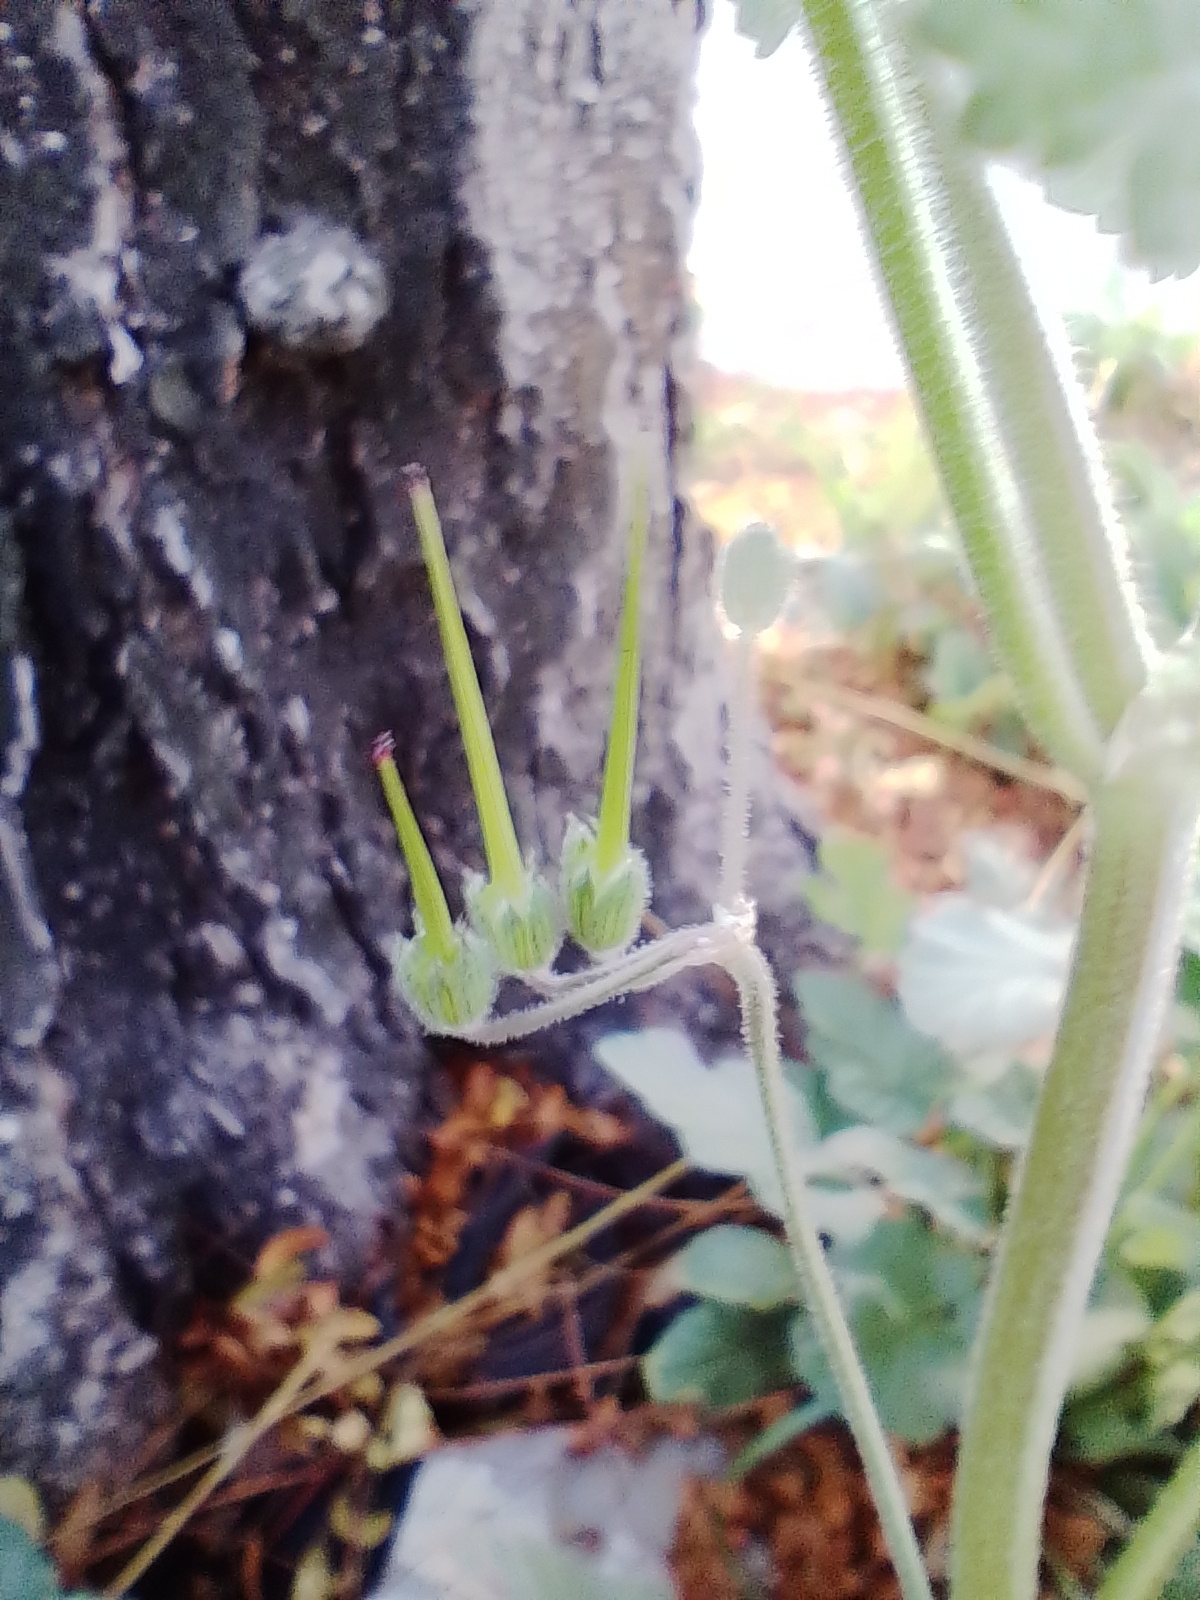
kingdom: Plantae
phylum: Tracheophyta
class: Magnoliopsida
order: Geraniales
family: Geraniaceae
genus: Erodium
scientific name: Erodium malacoides
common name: Soft stork's-bill
